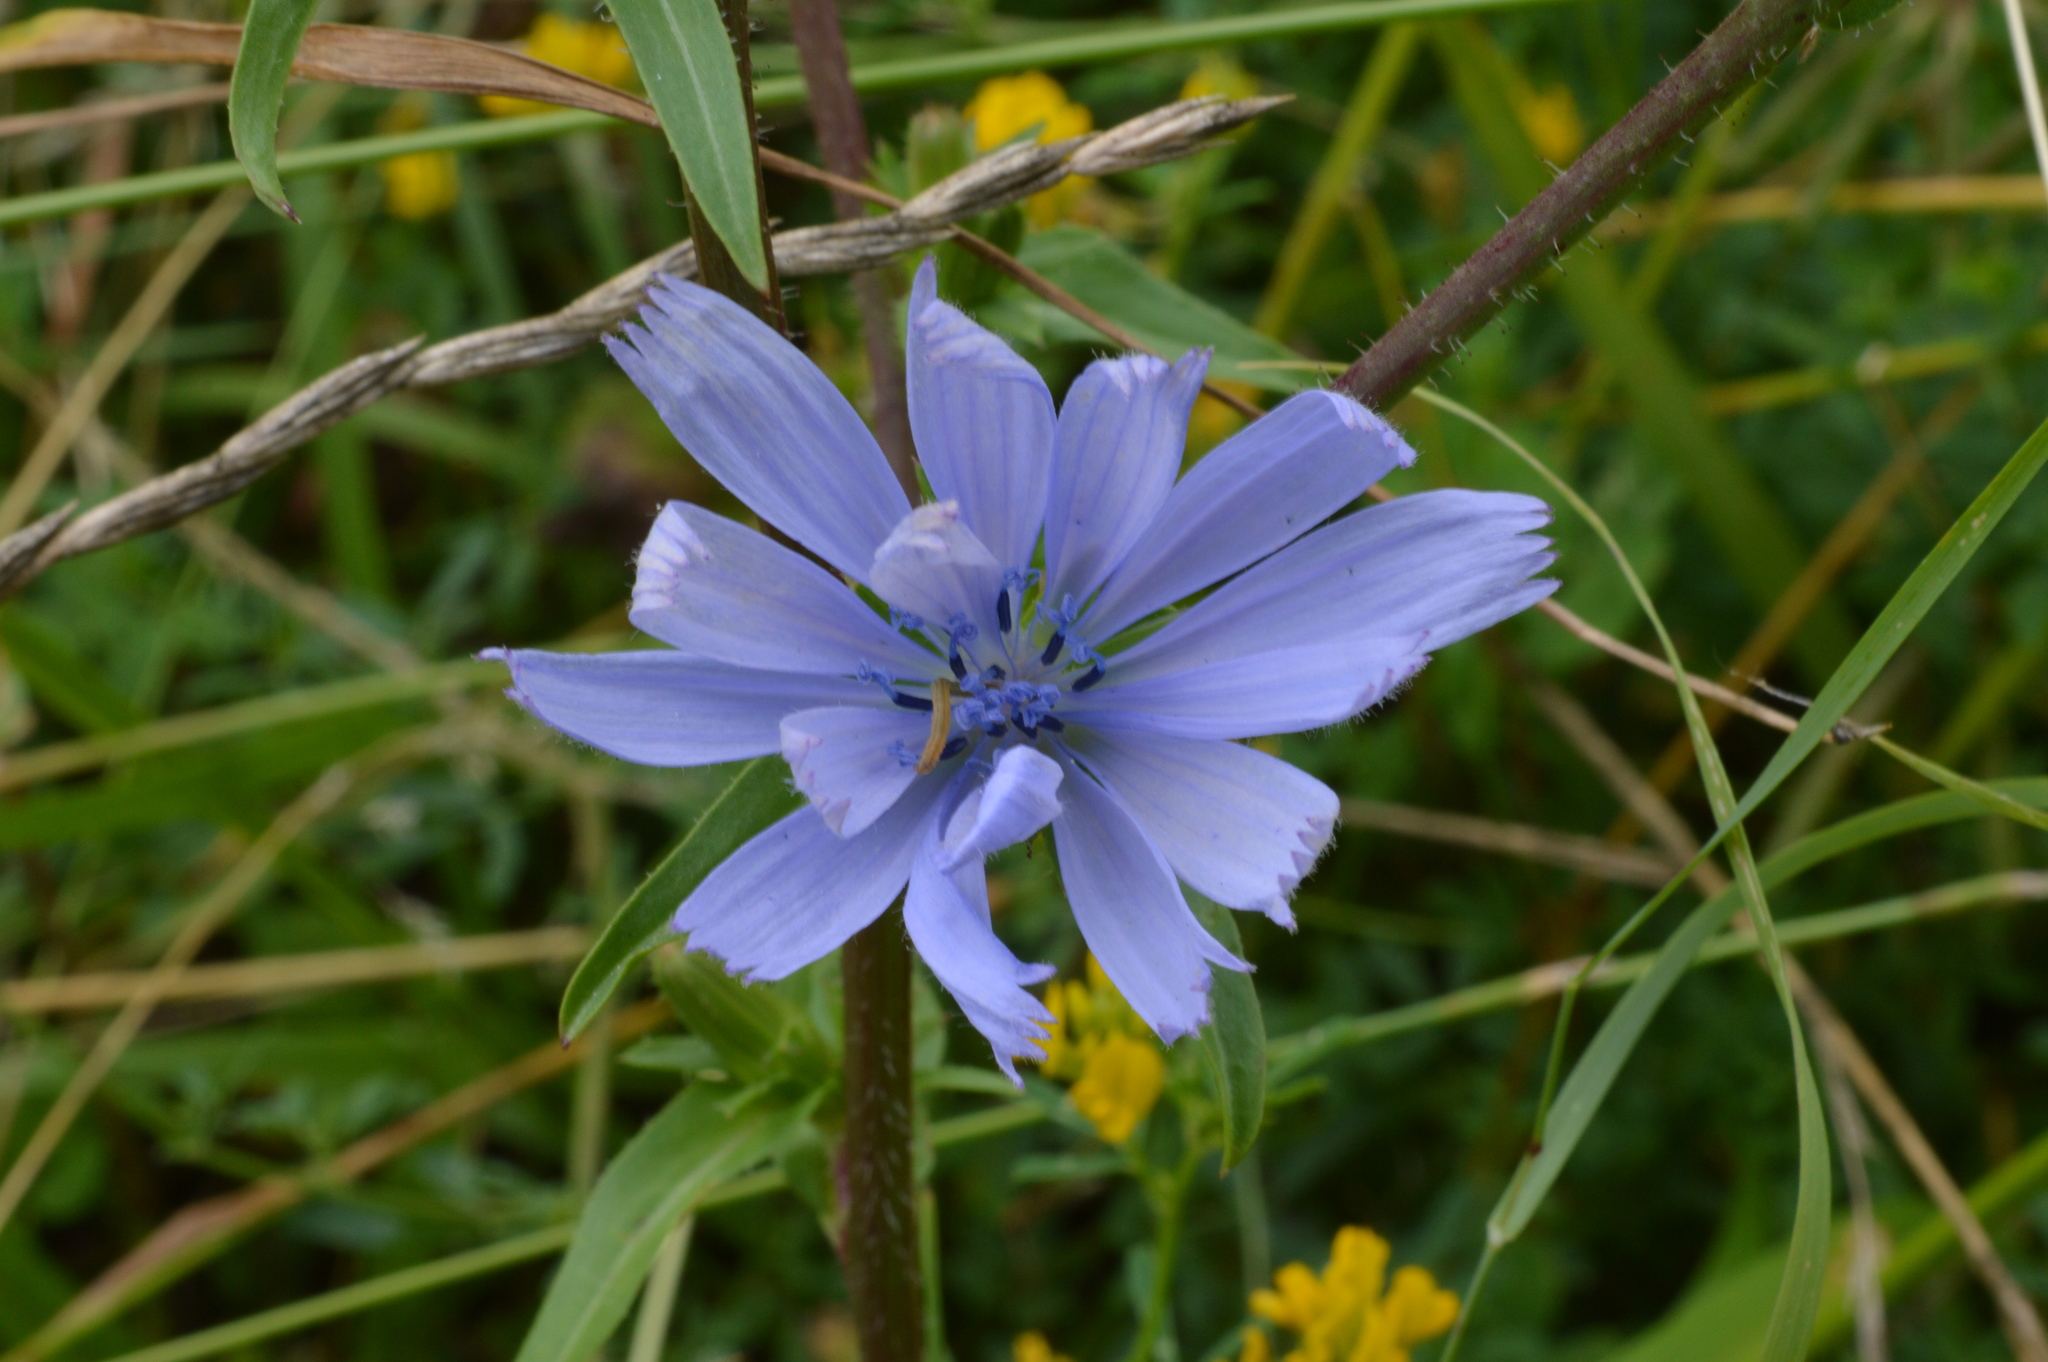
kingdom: Plantae
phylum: Tracheophyta
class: Magnoliopsida
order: Asterales
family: Asteraceae
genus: Cichorium
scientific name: Cichorium intybus
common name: Chicory
